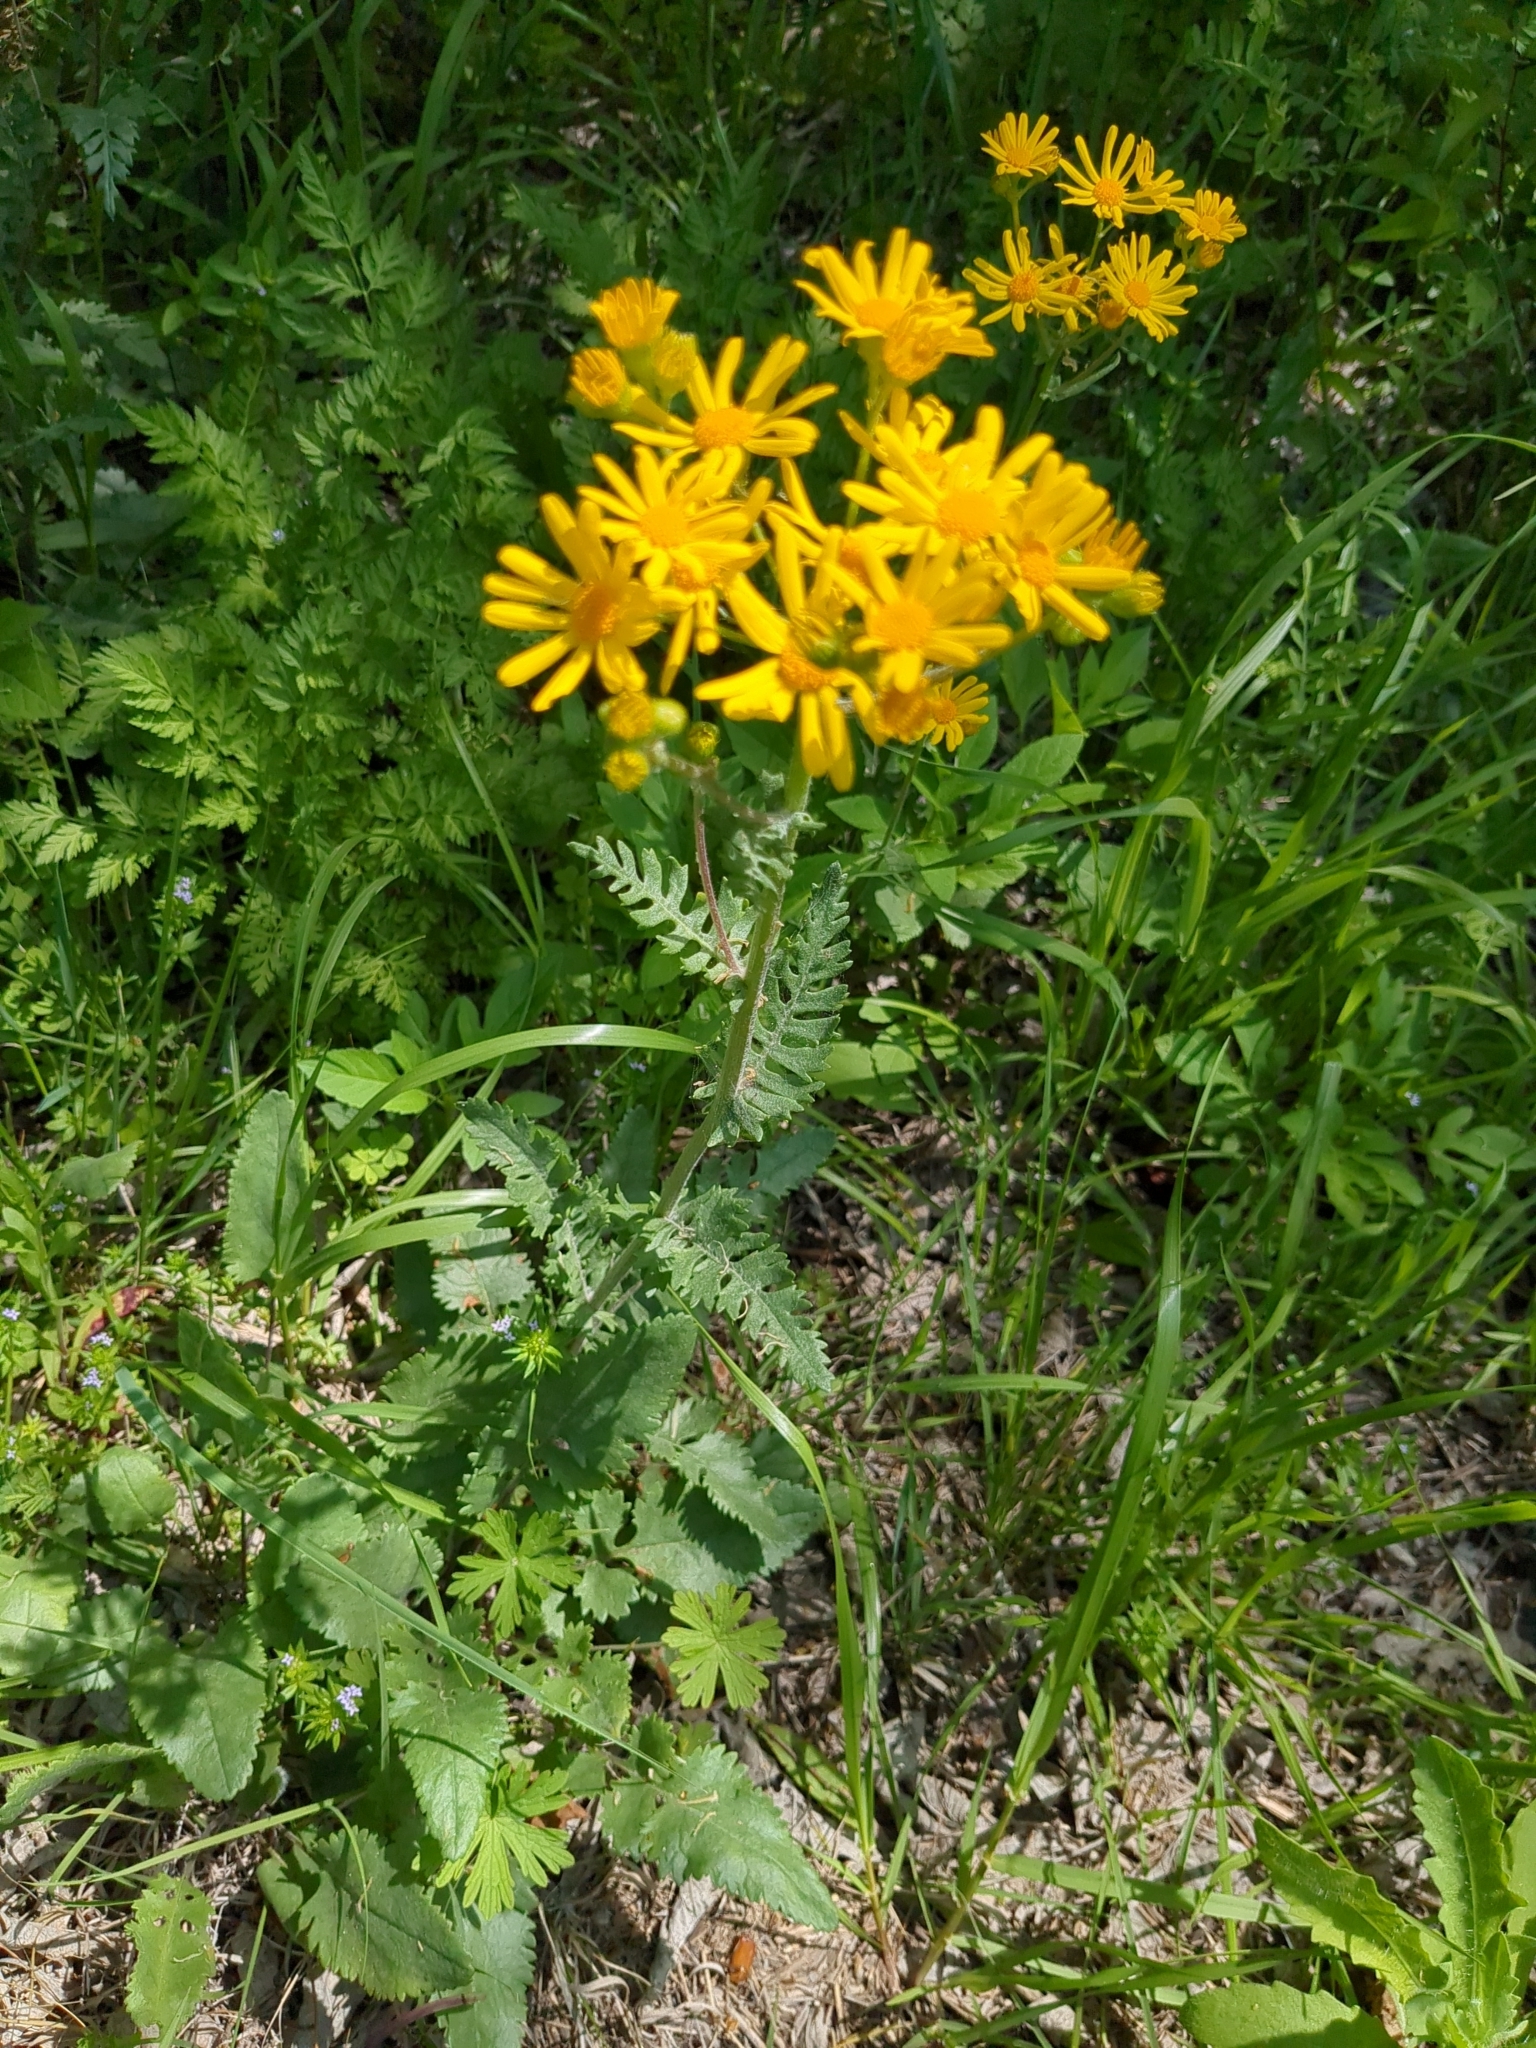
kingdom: Plantae
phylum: Tracheophyta
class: Magnoliopsida
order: Asterales
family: Asteraceae
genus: Packera
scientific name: Packera plattensis
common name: Prairie groundsel
